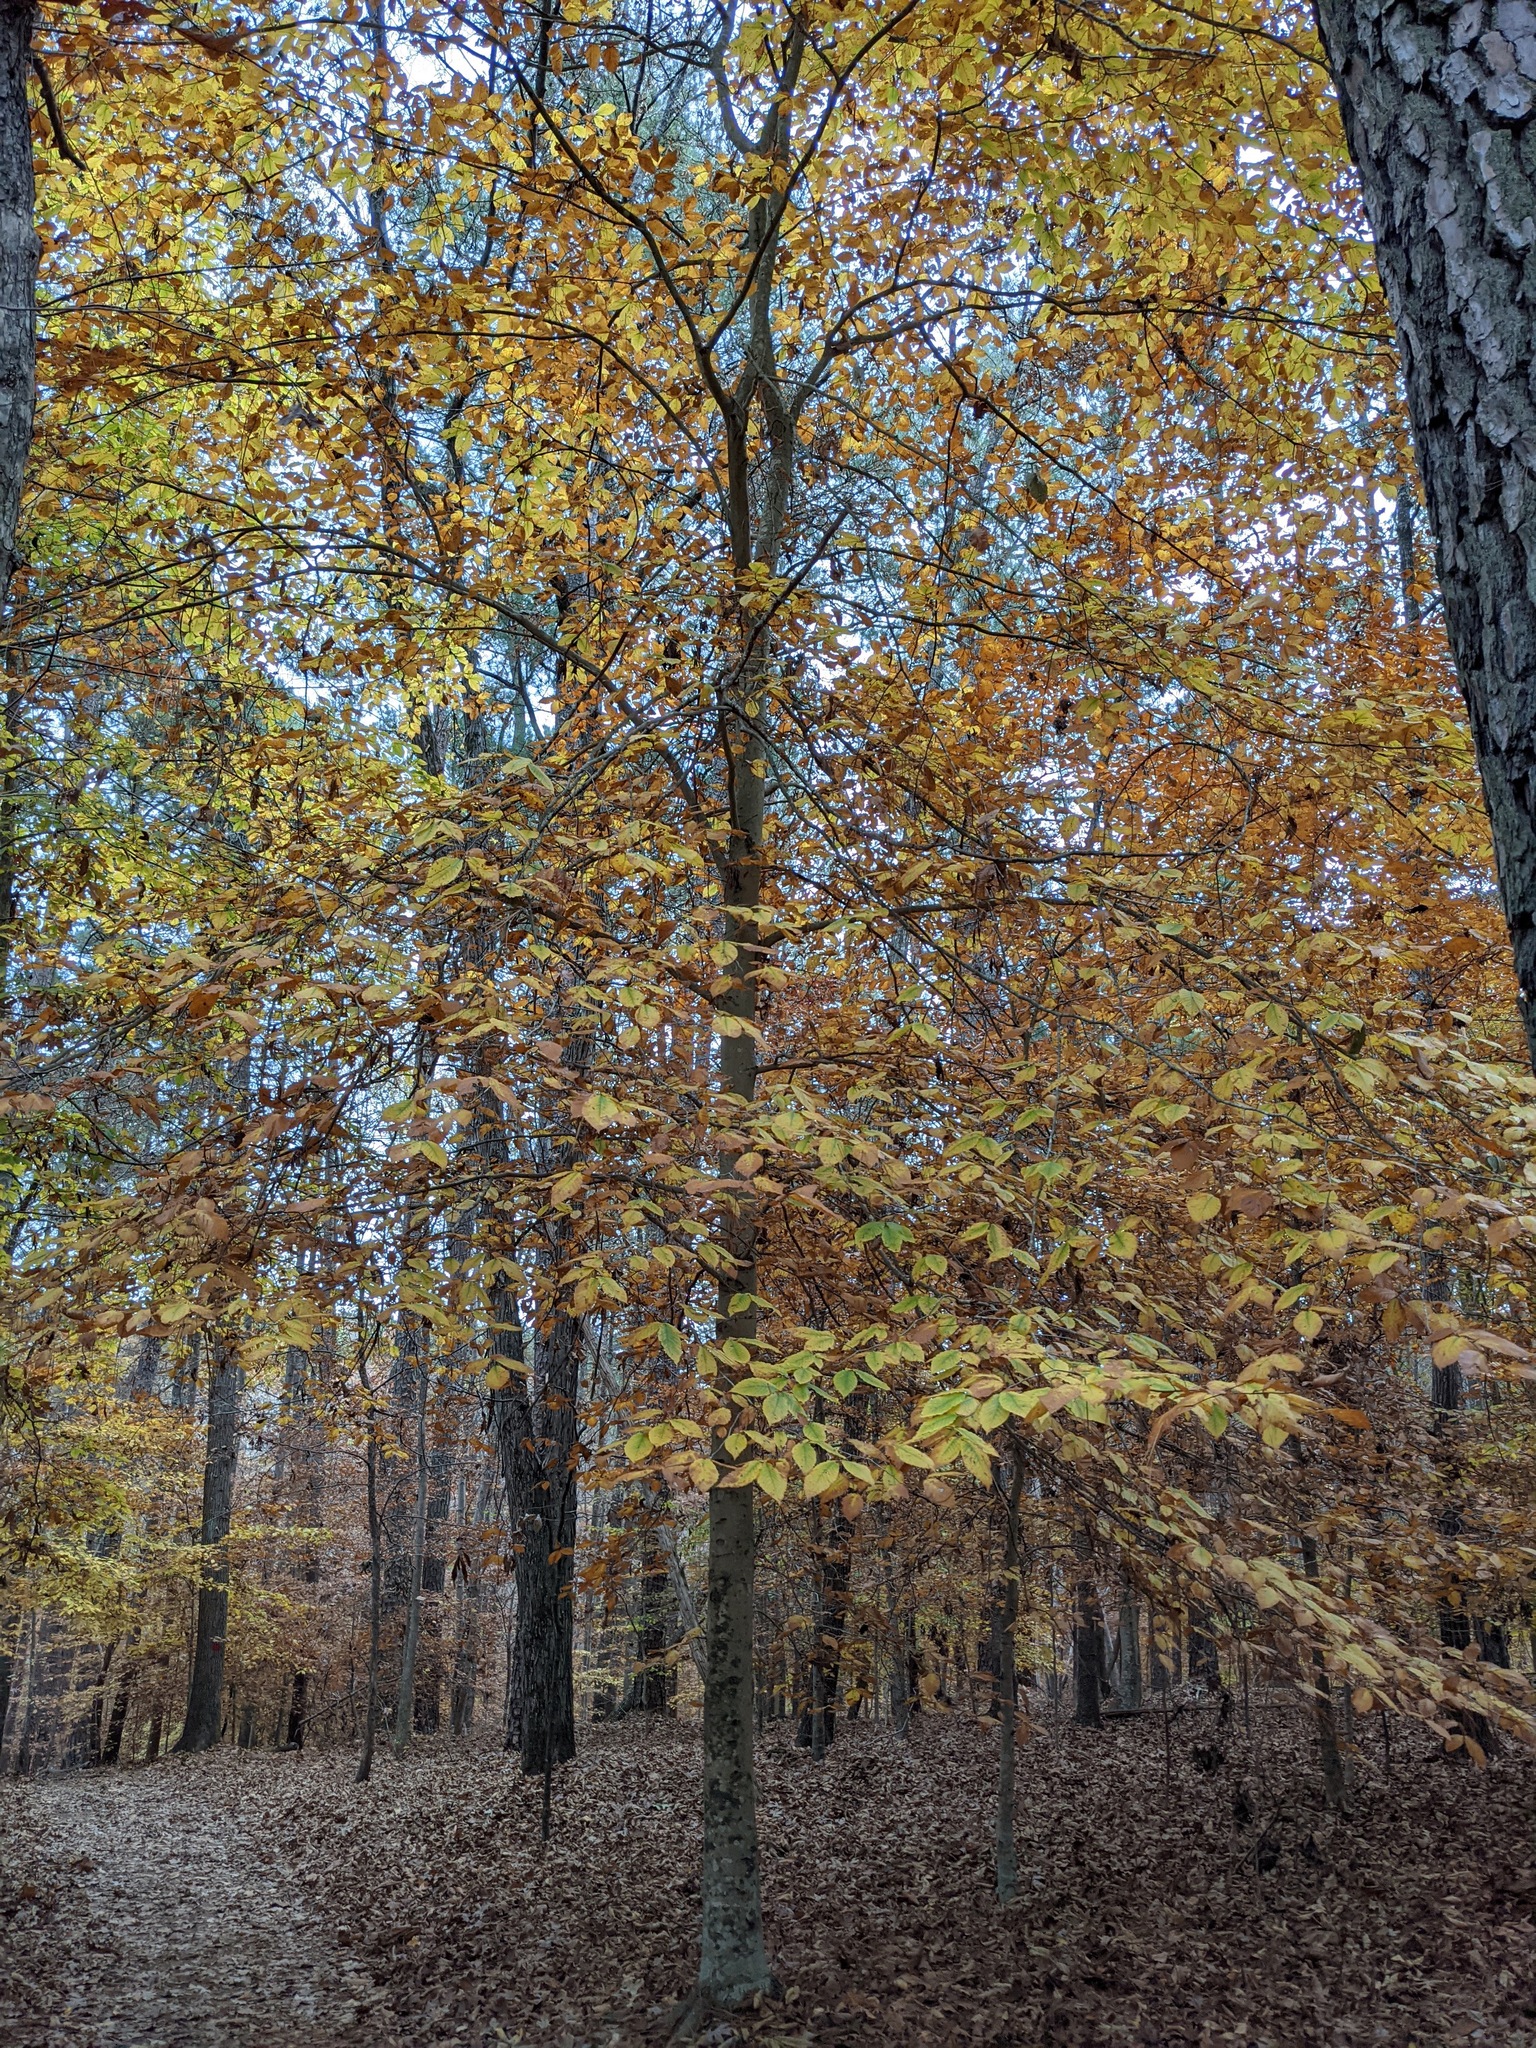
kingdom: Plantae
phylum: Tracheophyta
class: Magnoliopsida
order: Fagales
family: Fagaceae
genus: Fagus
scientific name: Fagus grandifolia
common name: American beech
